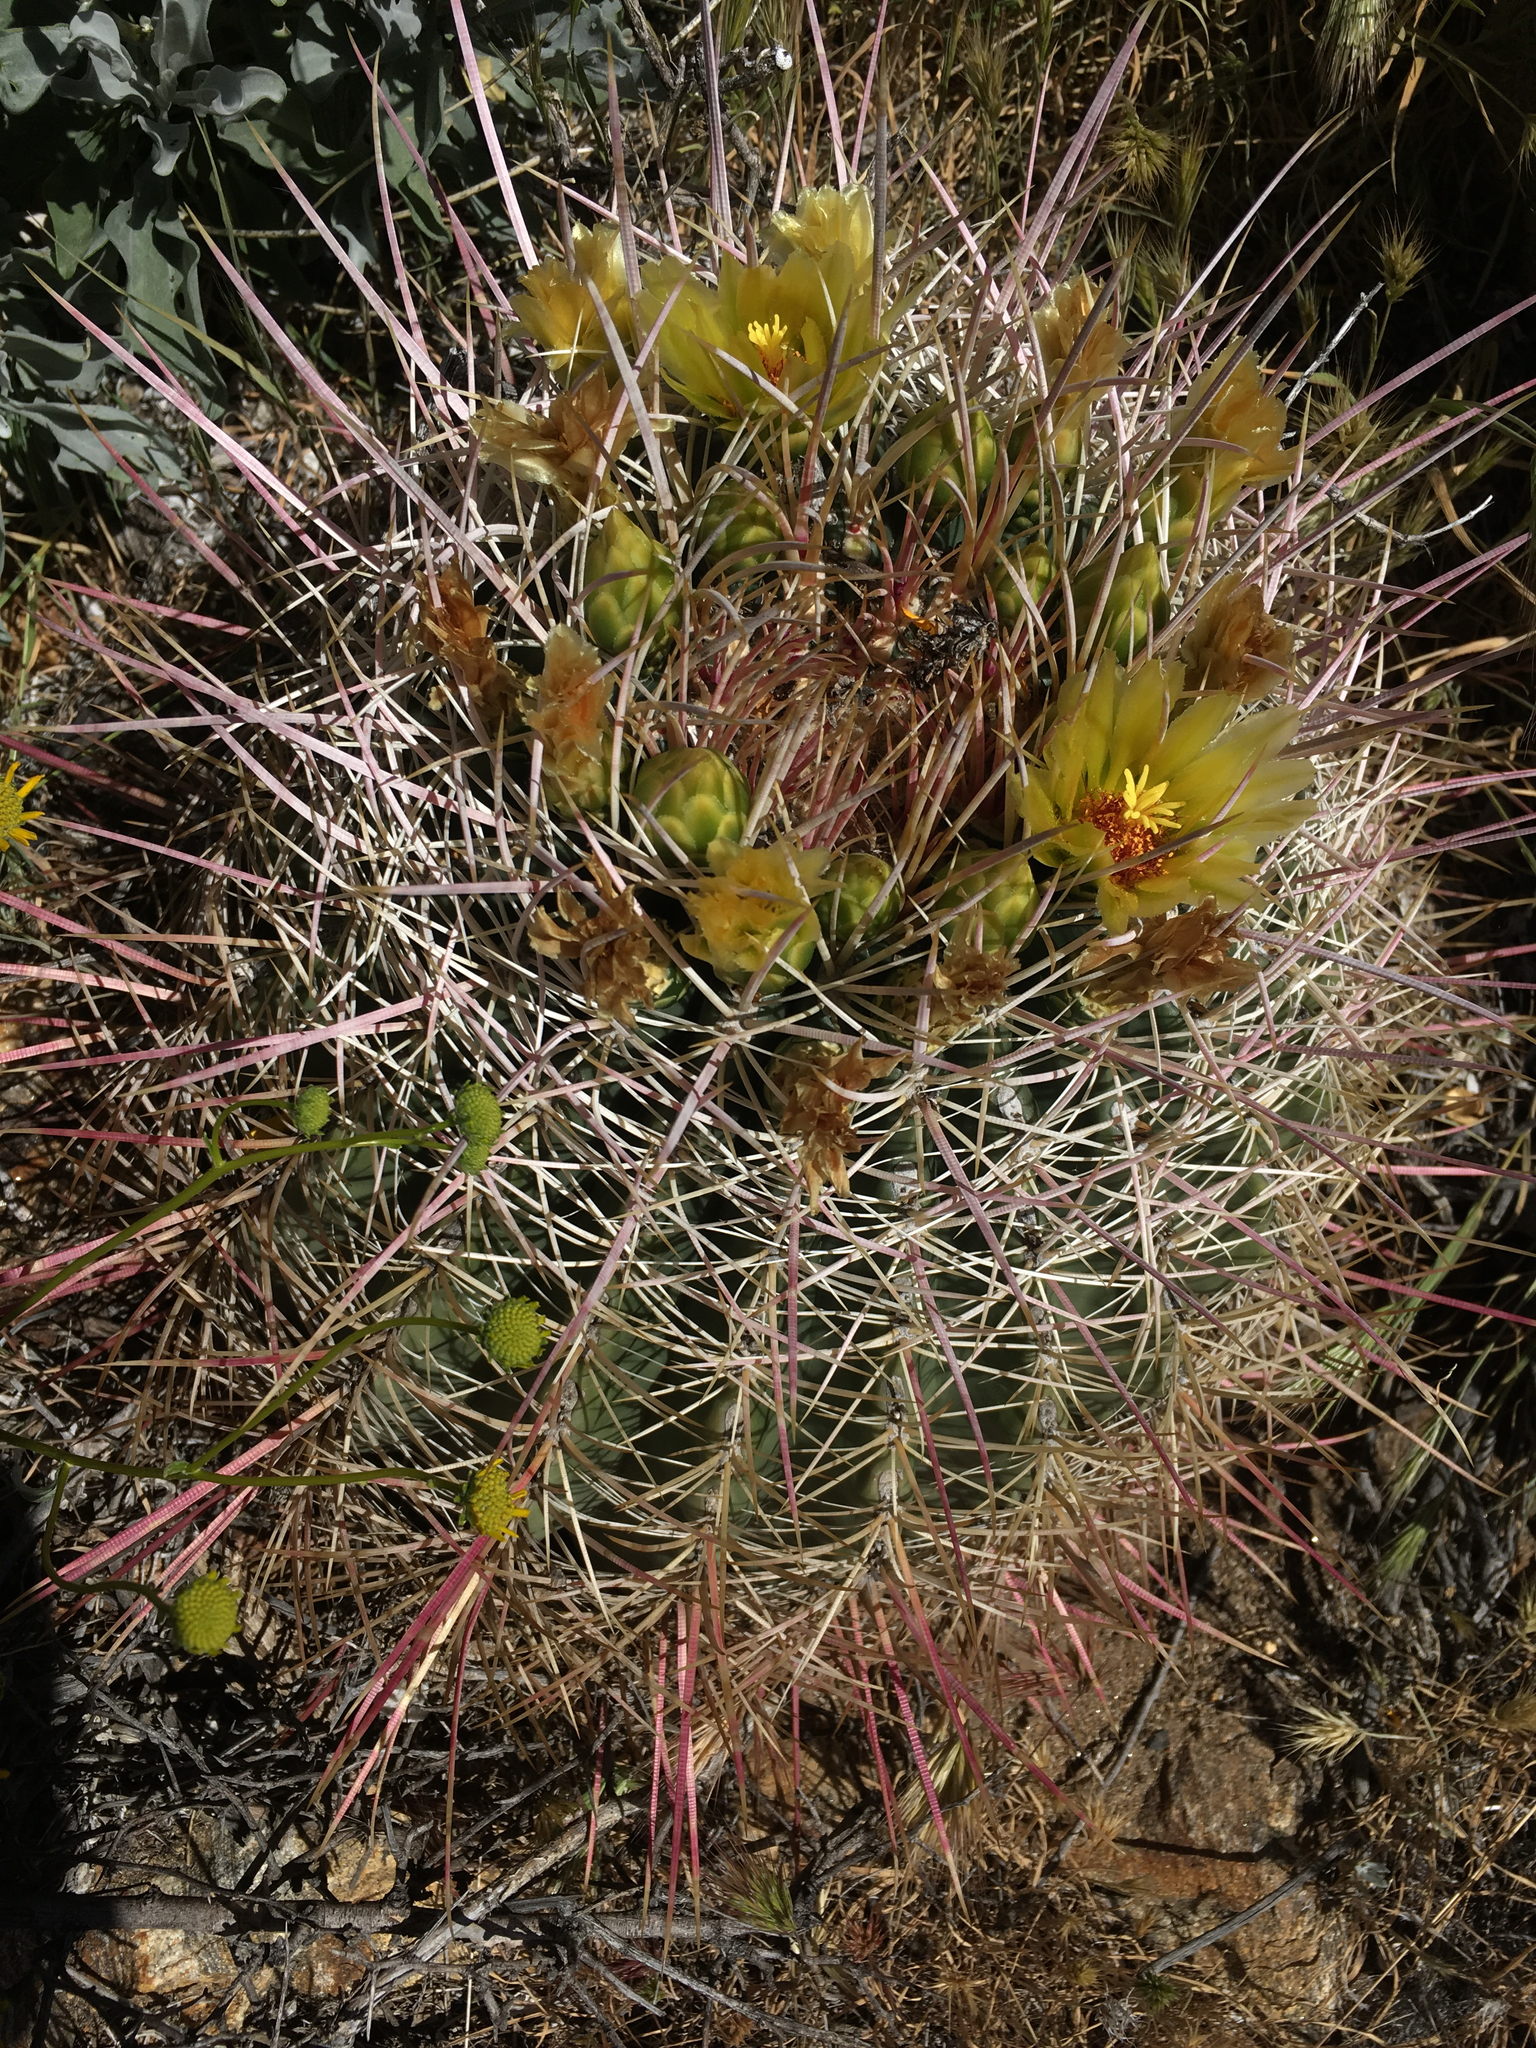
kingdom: Plantae
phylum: Tracheophyta
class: Magnoliopsida
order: Caryophyllales
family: Cactaceae
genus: Ferocactus
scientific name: Ferocactus cylindraceus
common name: California barrel cactus
